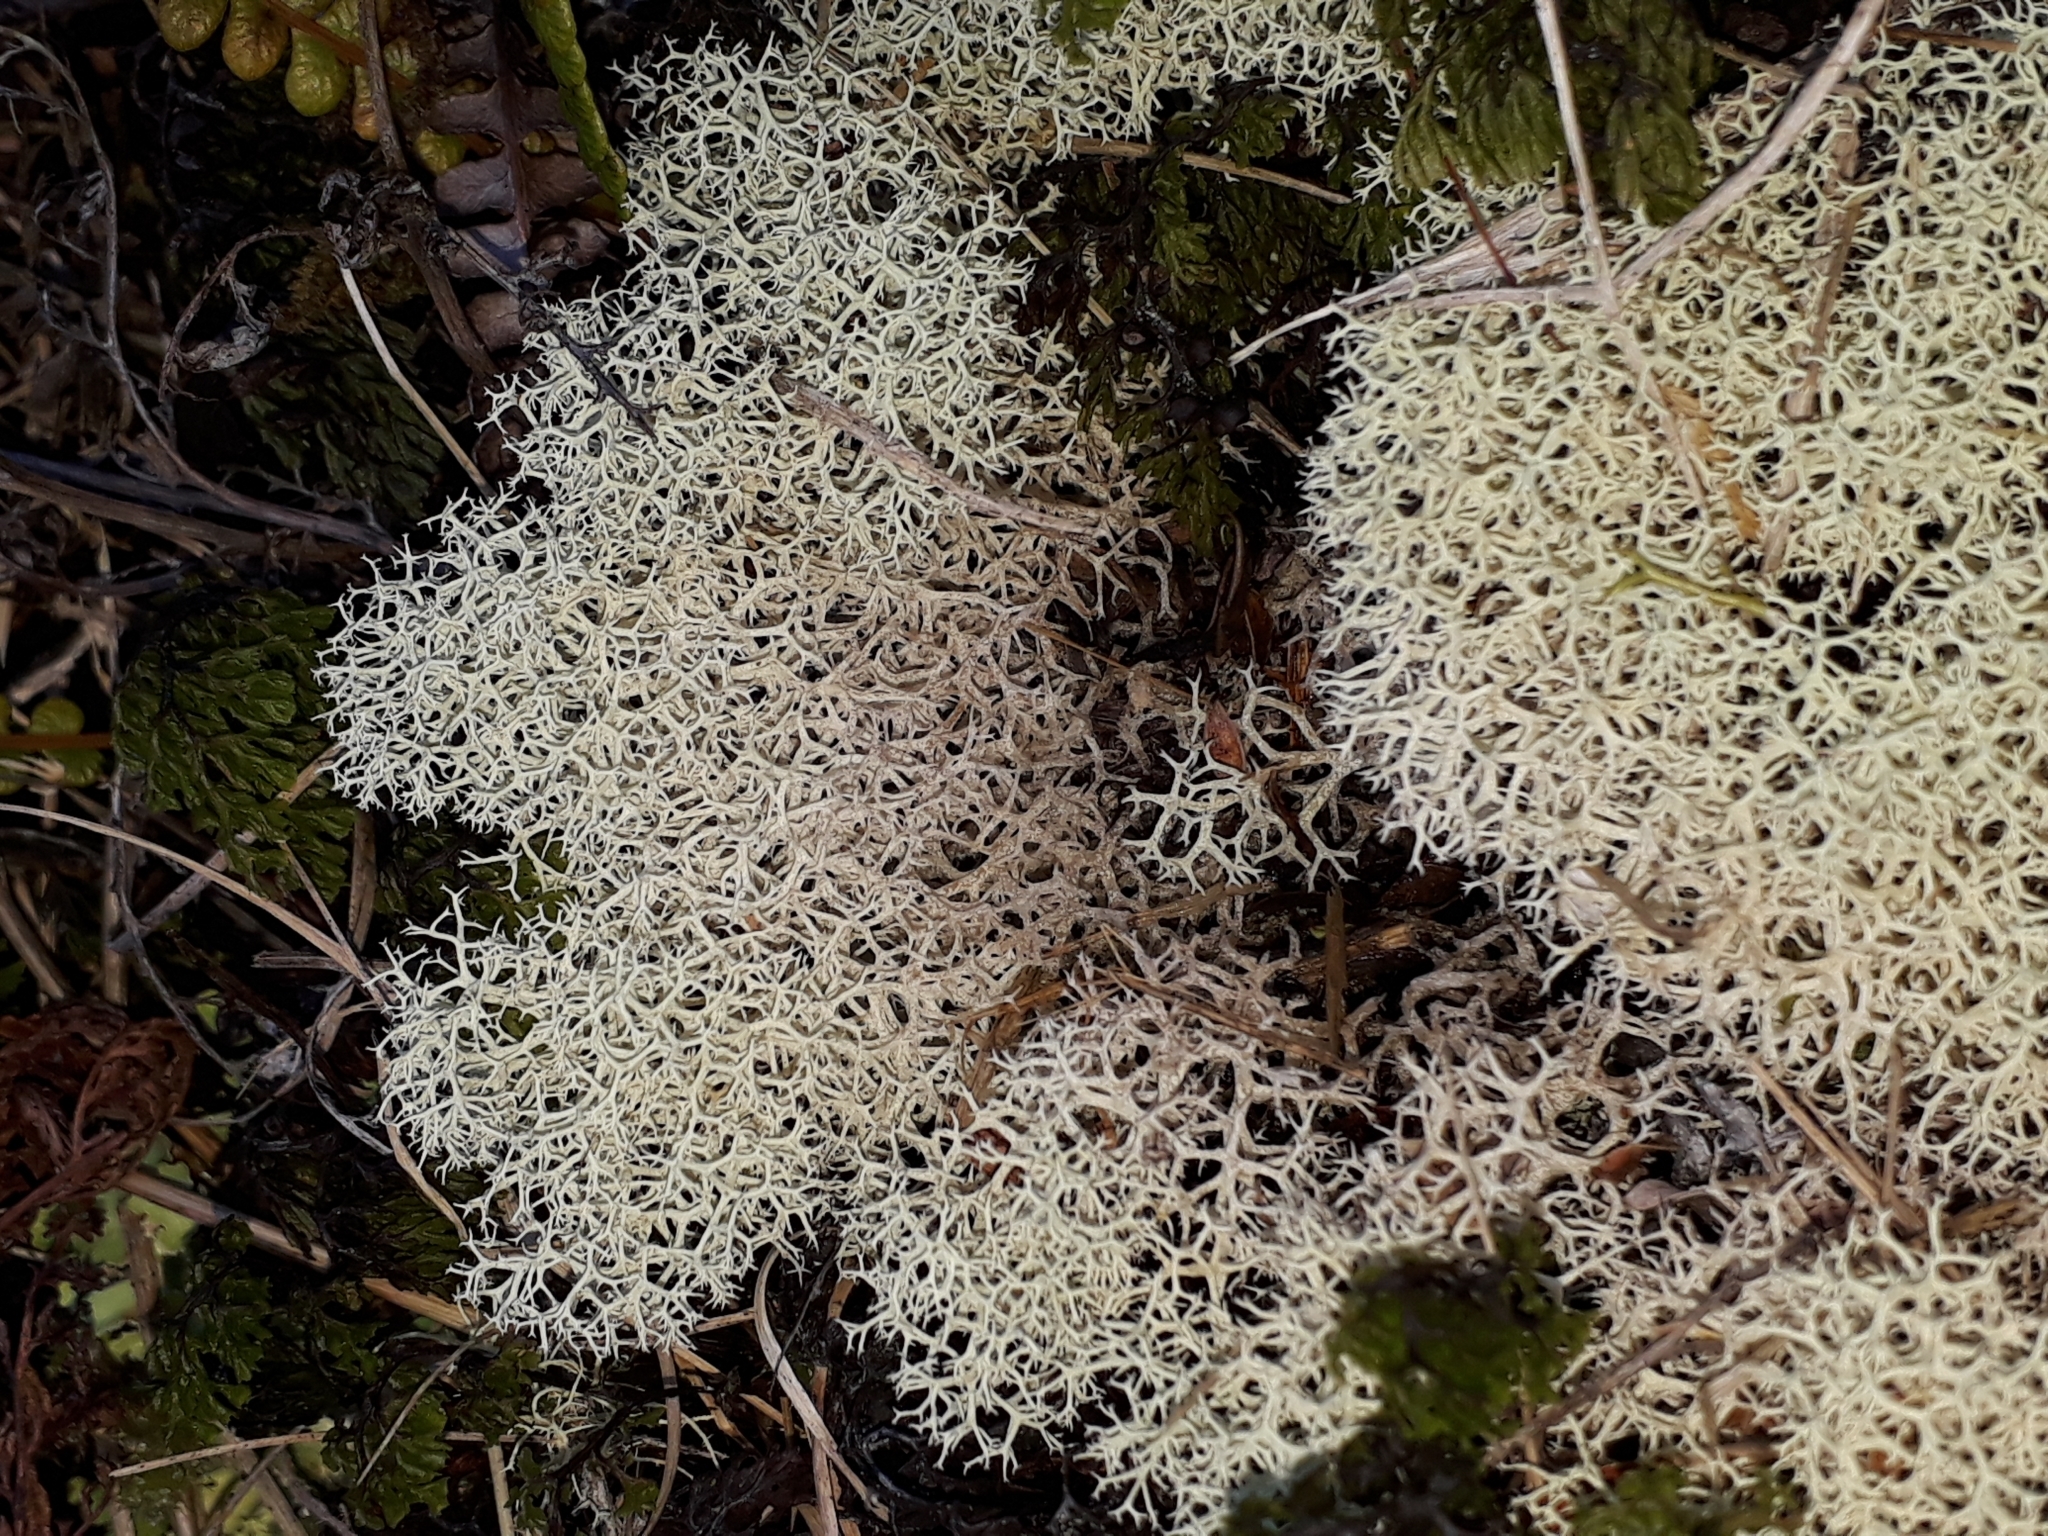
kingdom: Fungi
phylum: Ascomycota
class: Lecanoromycetes
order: Lecanorales
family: Cladoniaceae
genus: Cladonia
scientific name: Cladonia confusa
